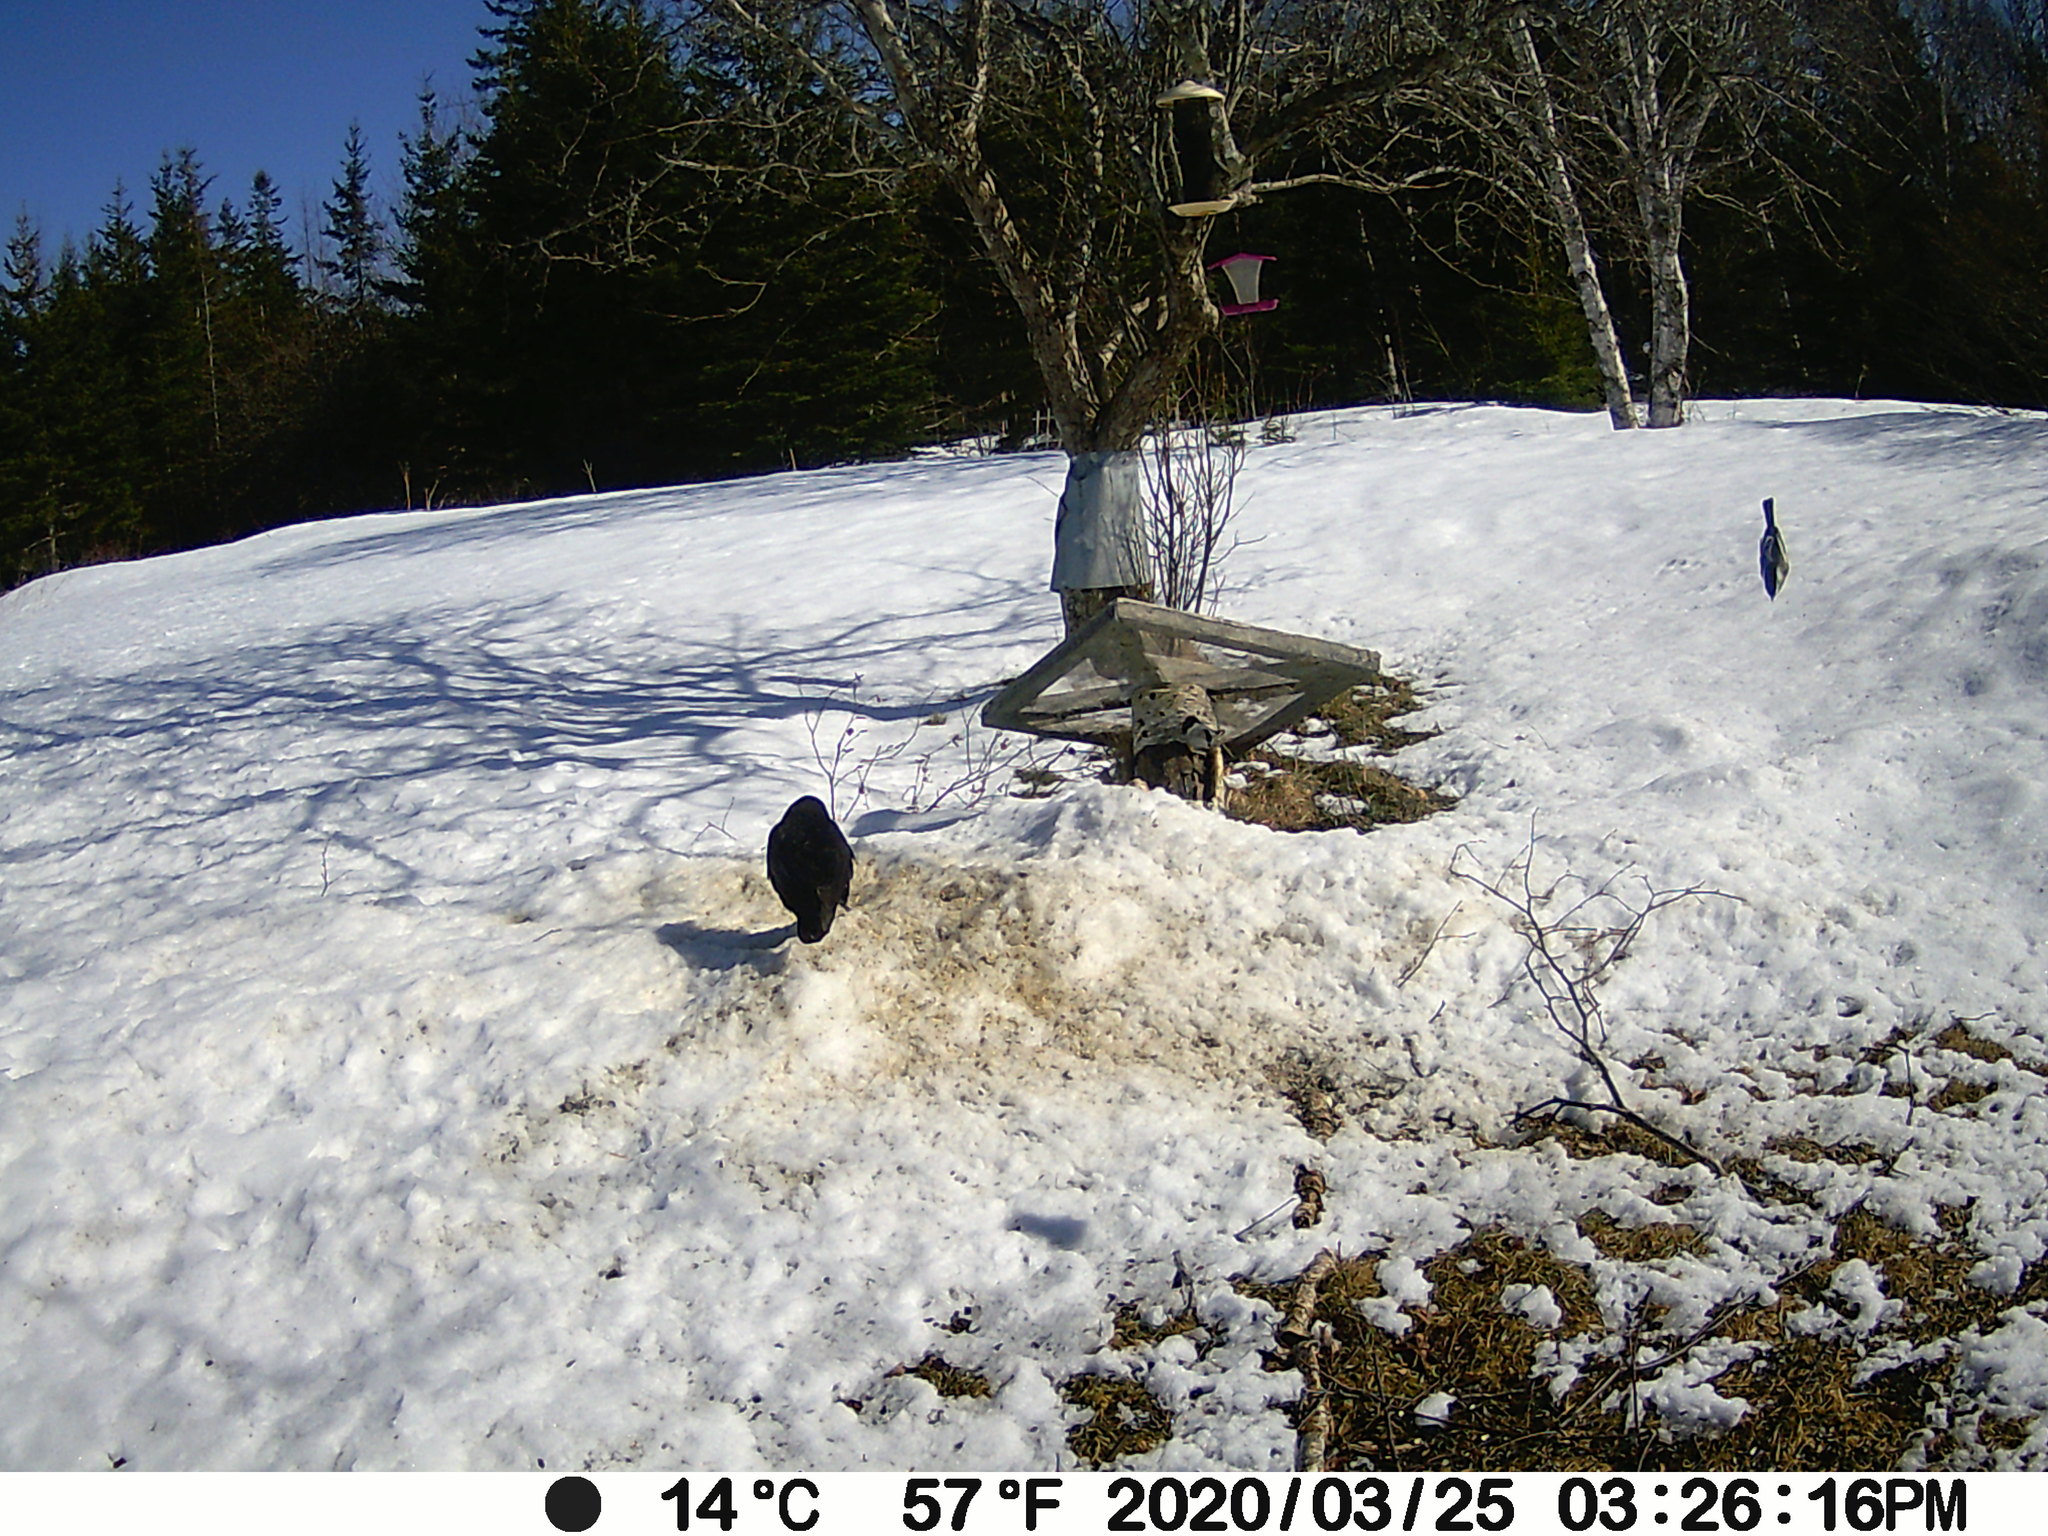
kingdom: Animalia
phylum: Chordata
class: Aves
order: Passeriformes
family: Paridae
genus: Poecile
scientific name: Poecile atricapillus
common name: Black-capped chickadee
